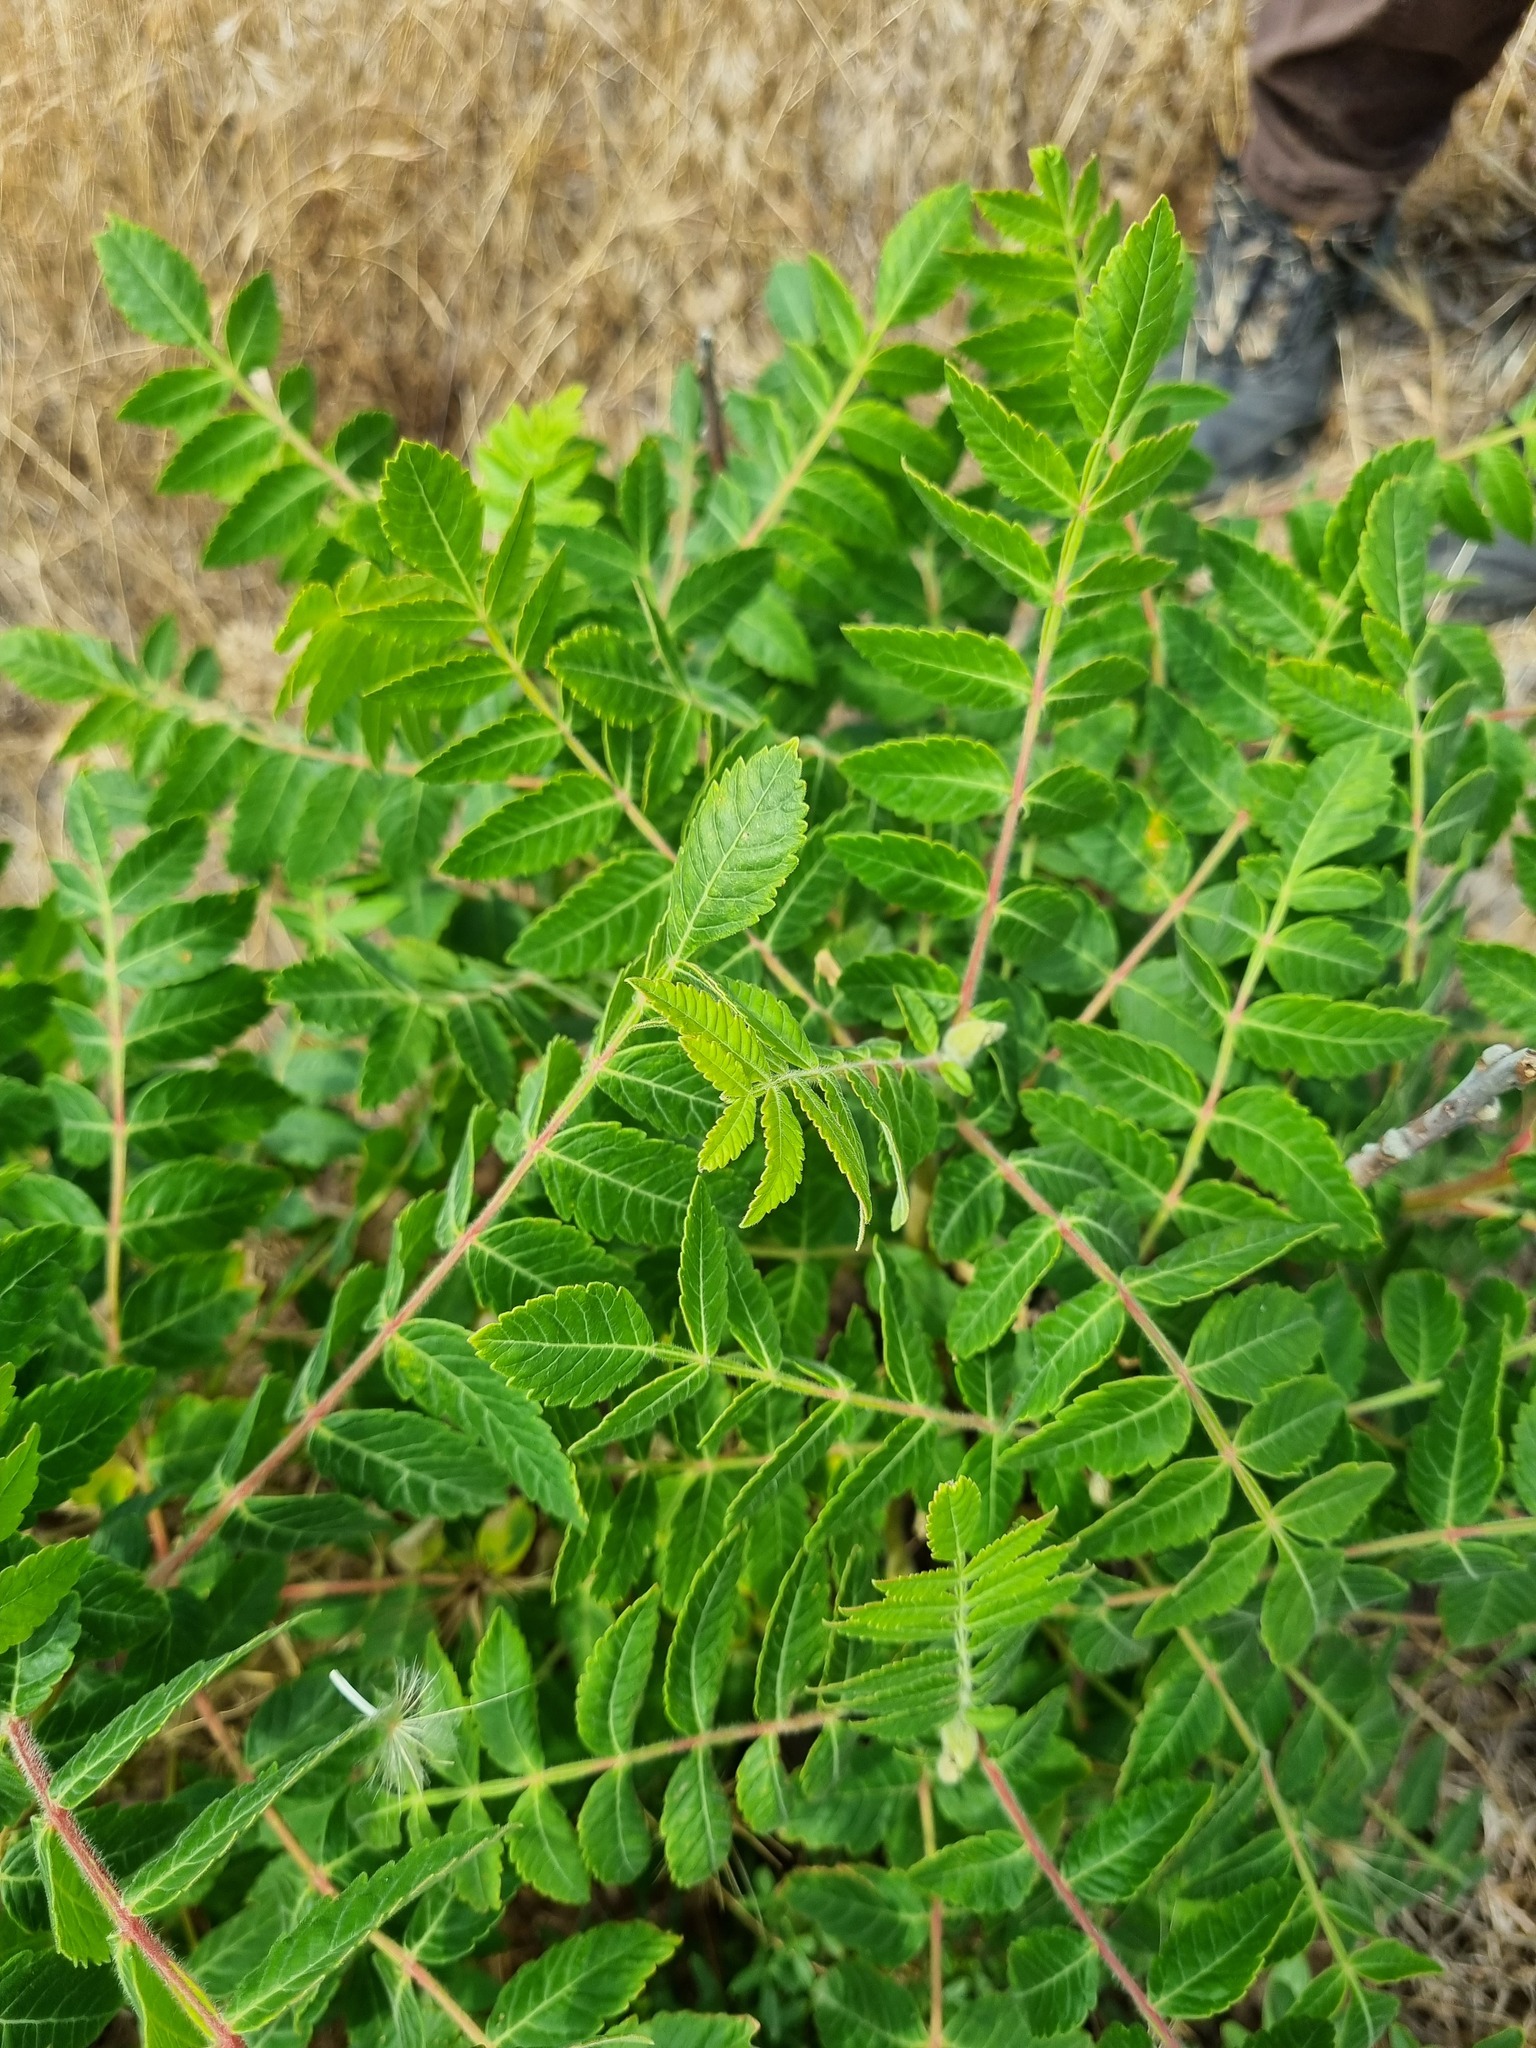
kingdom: Plantae
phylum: Tracheophyta
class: Magnoliopsida
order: Sapindales
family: Anacardiaceae
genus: Rhus
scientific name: Rhus coriaria
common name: Tanner's sumach
